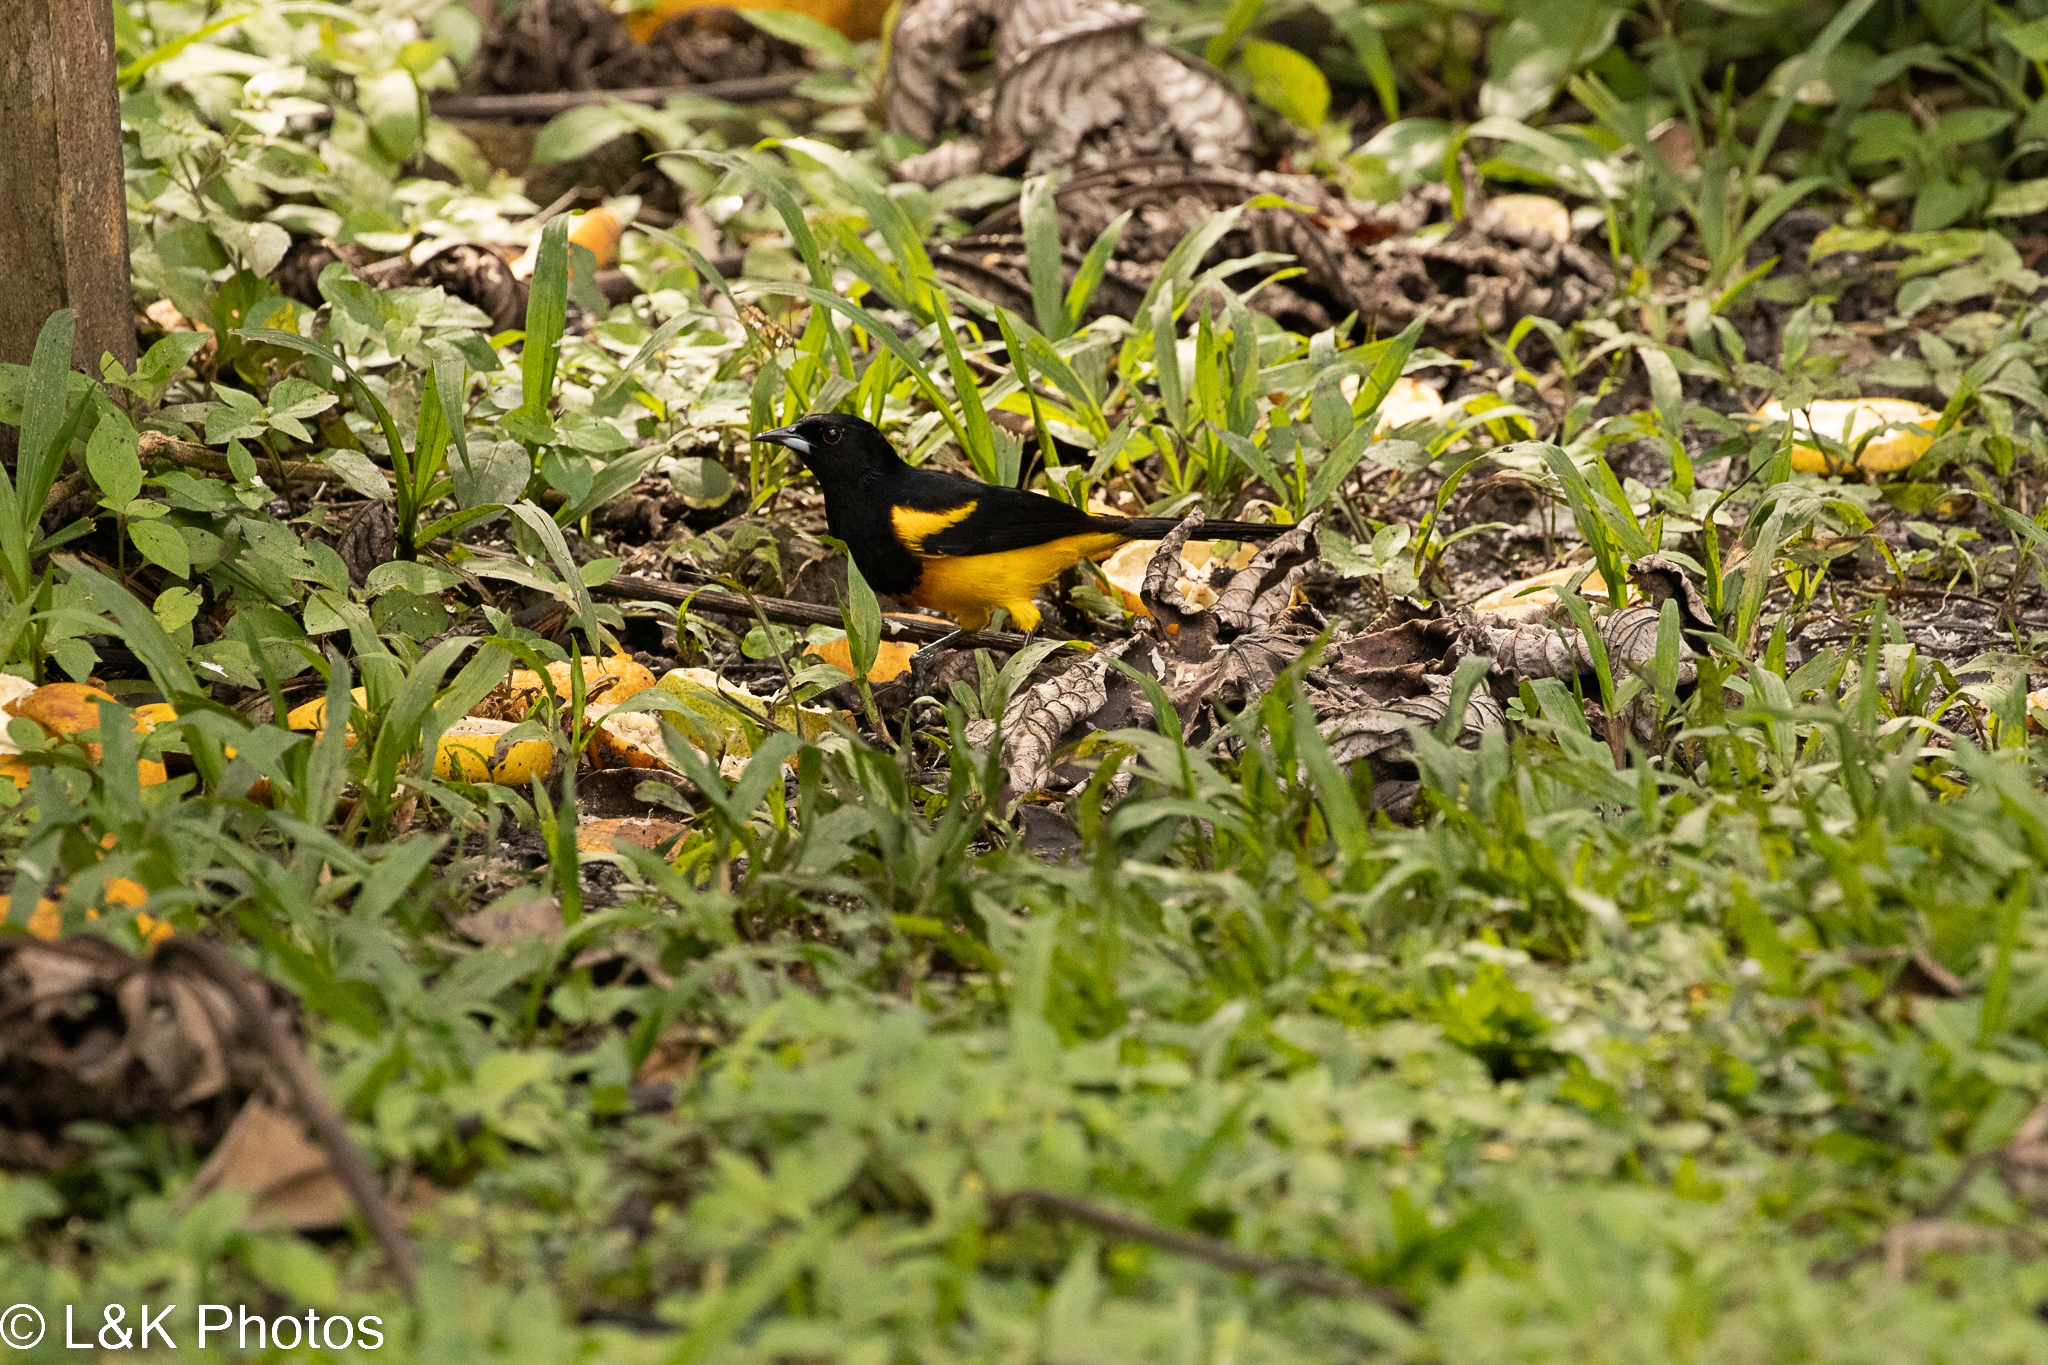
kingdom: Animalia
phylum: Chordata
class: Aves
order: Passeriformes
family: Icteridae
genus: Icterus
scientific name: Icterus prosthemelas
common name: Black-cowled oriole
